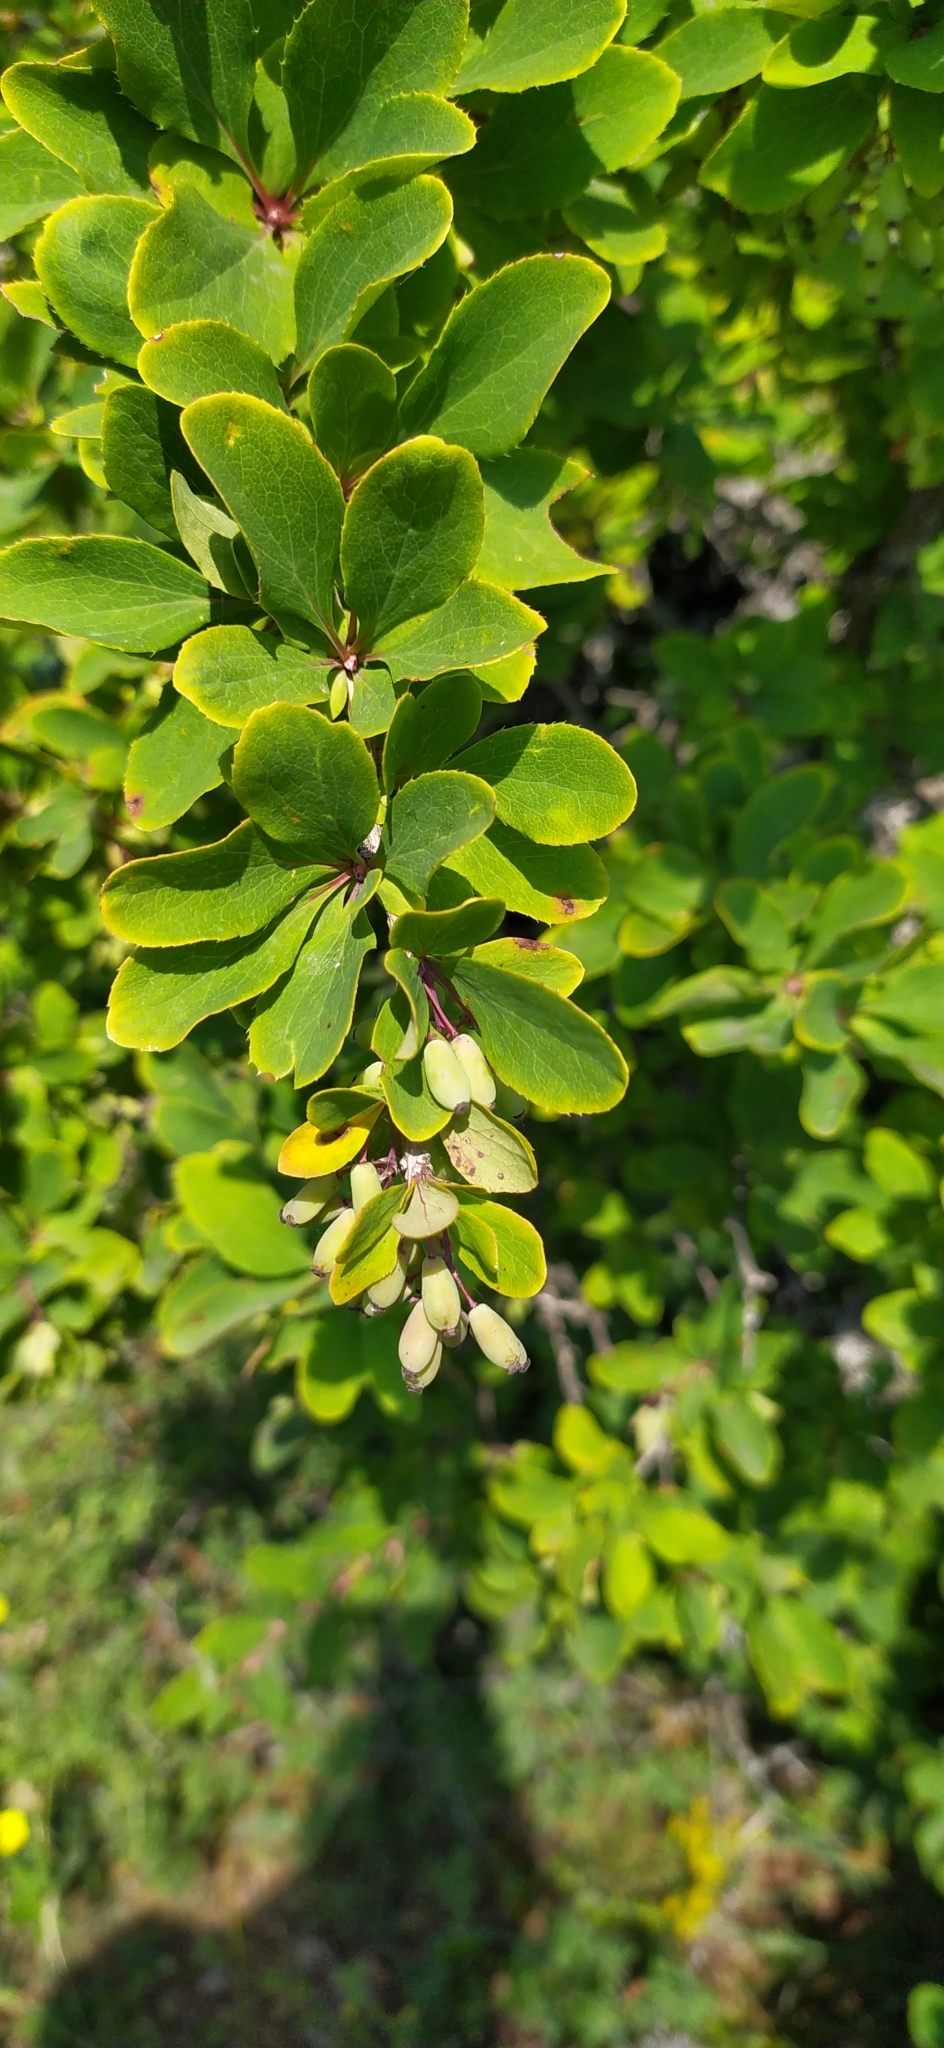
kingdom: Plantae
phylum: Tracheophyta
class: Magnoliopsida
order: Ranunculales
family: Berberidaceae
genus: Berberis
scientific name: Berberis vulgaris
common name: Barberry
